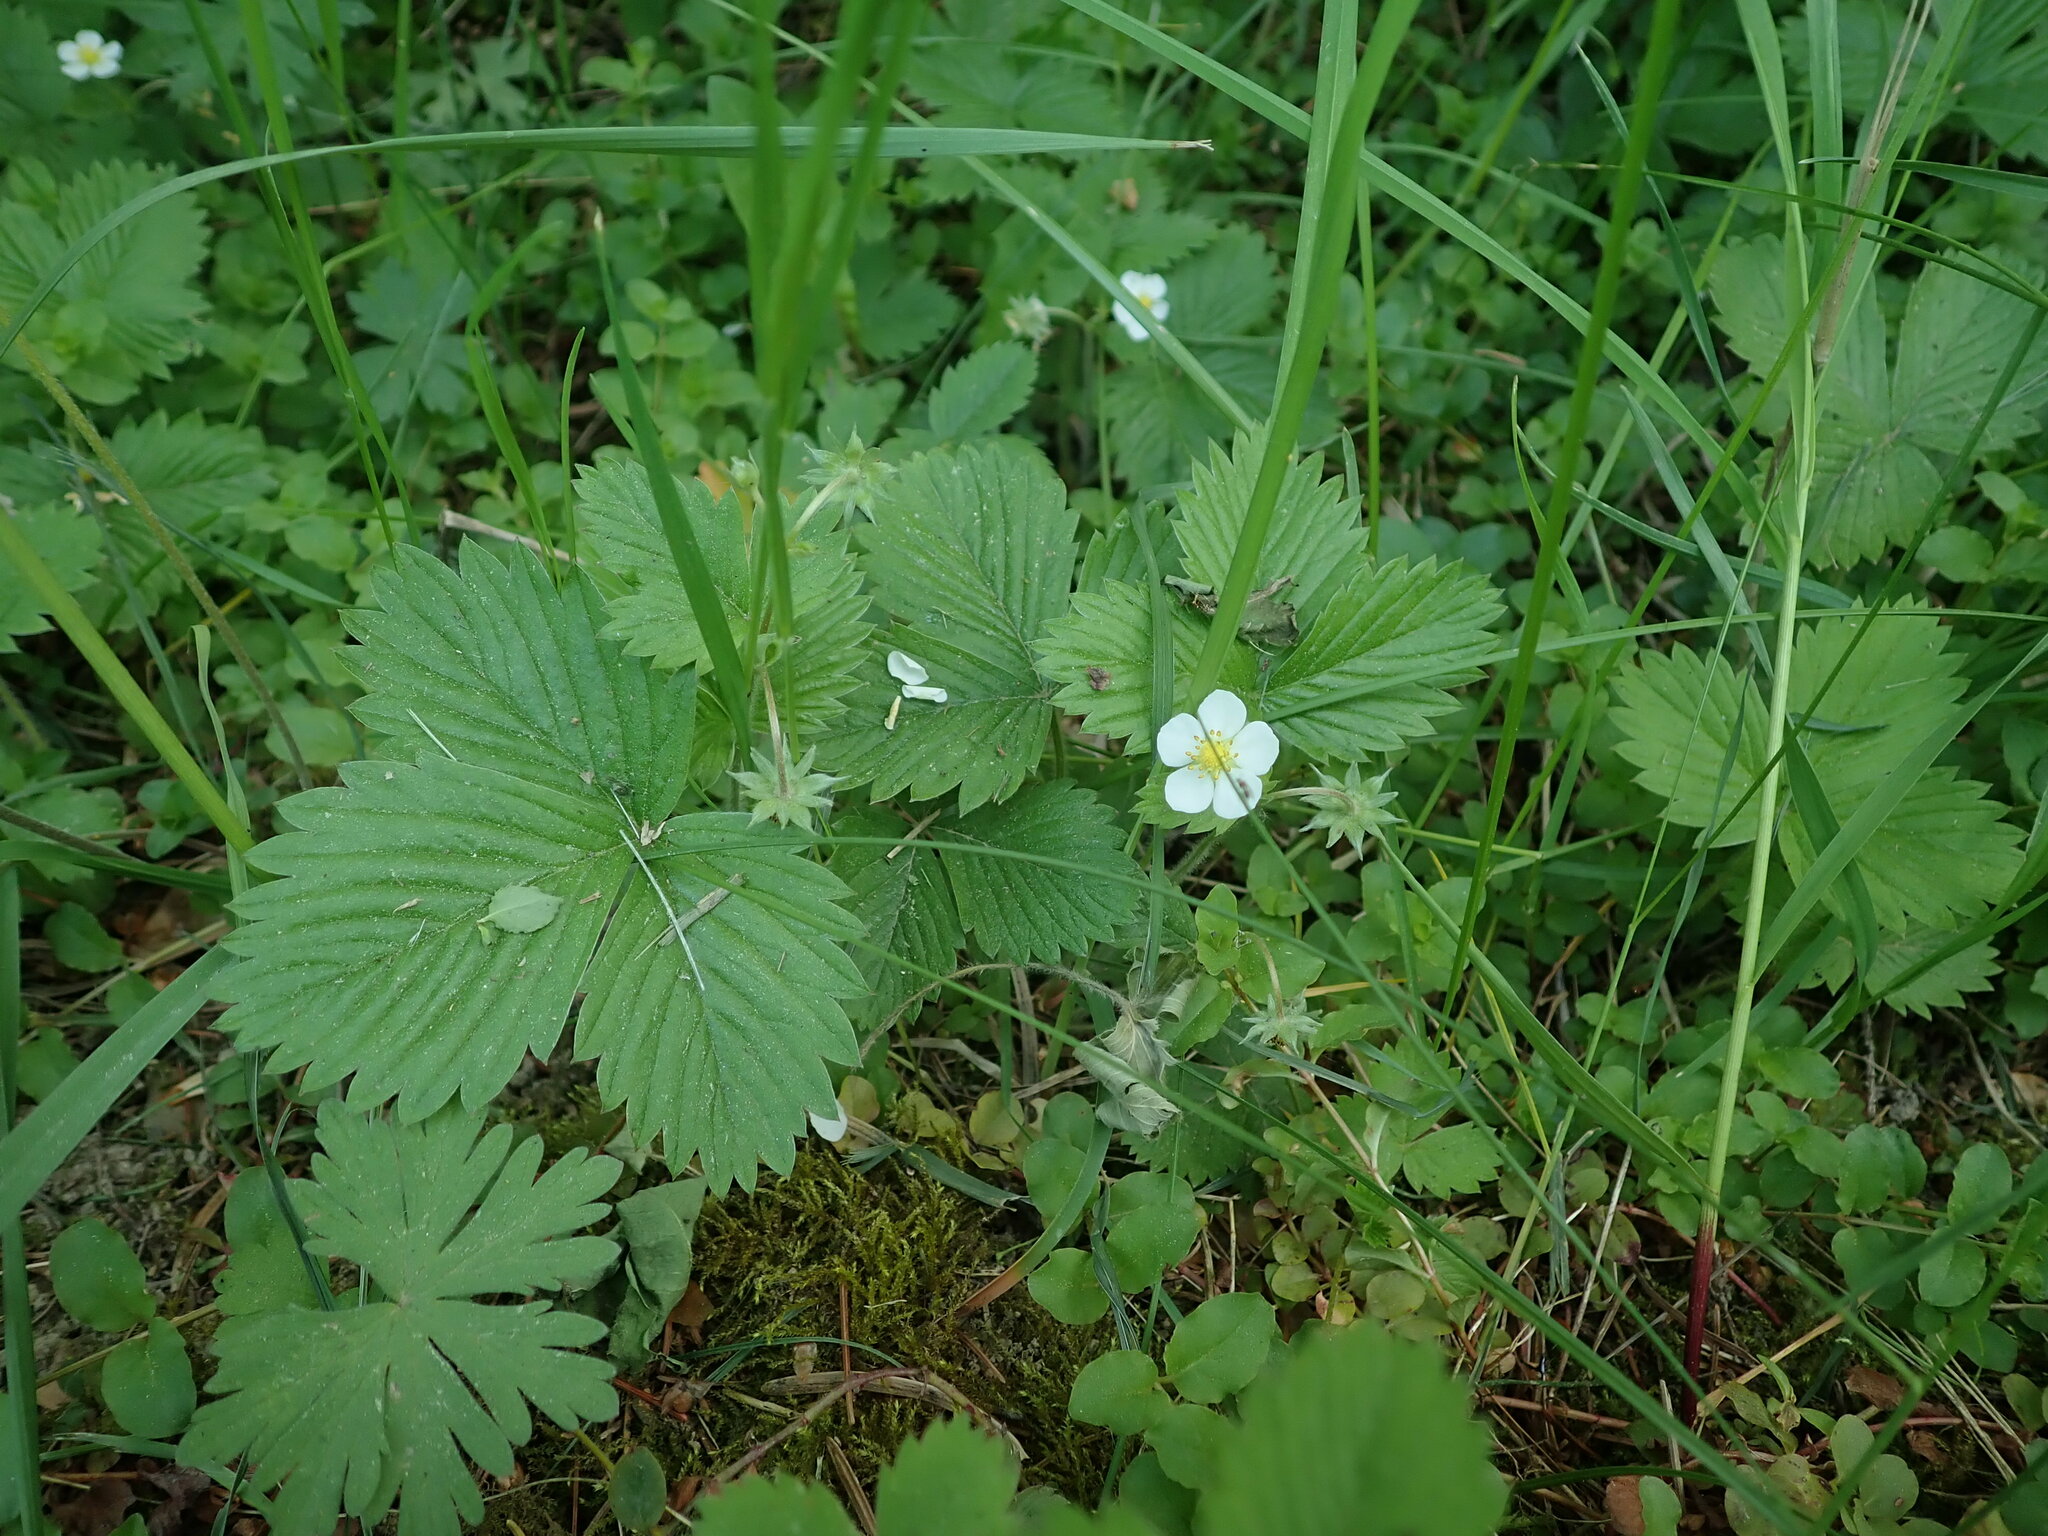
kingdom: Plantae
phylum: Tracheophyta
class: Magnoliopsida
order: Rosales
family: Rosaceae
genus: Fragaria
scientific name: Fragaria vesca
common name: Wild strawberry
